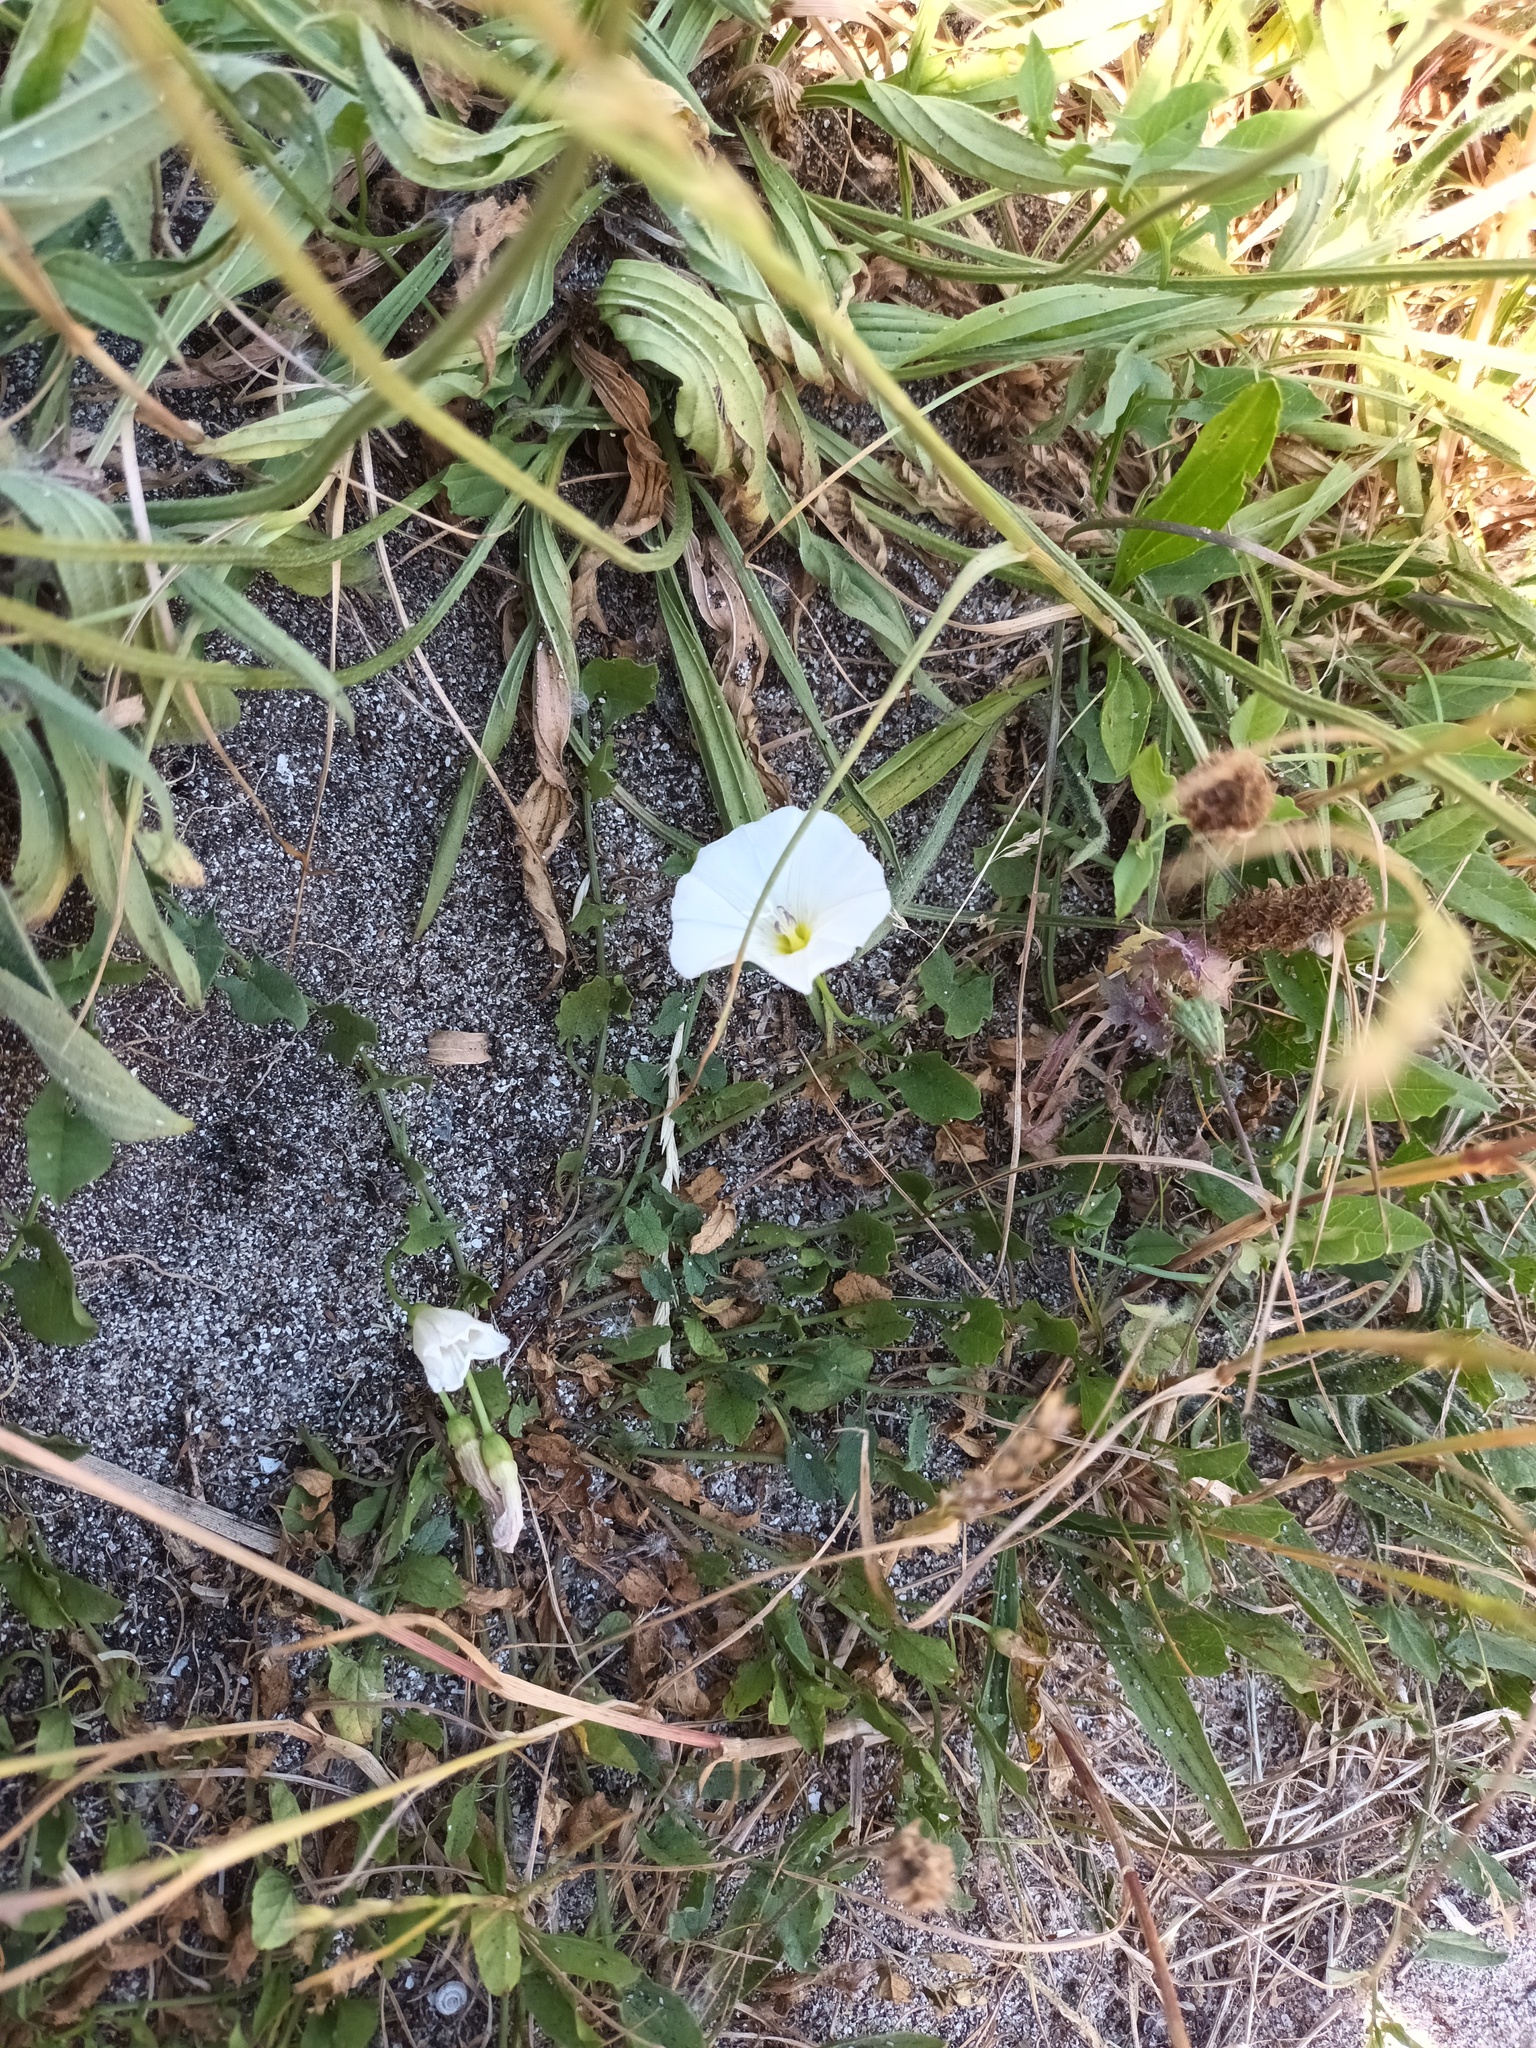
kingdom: Plantae
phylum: Tracheophyta
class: Magnoliopsida
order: Solanales
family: Convolvulaceae
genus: Convolvulus
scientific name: Convolvulus arvensis
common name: Field bindweed
